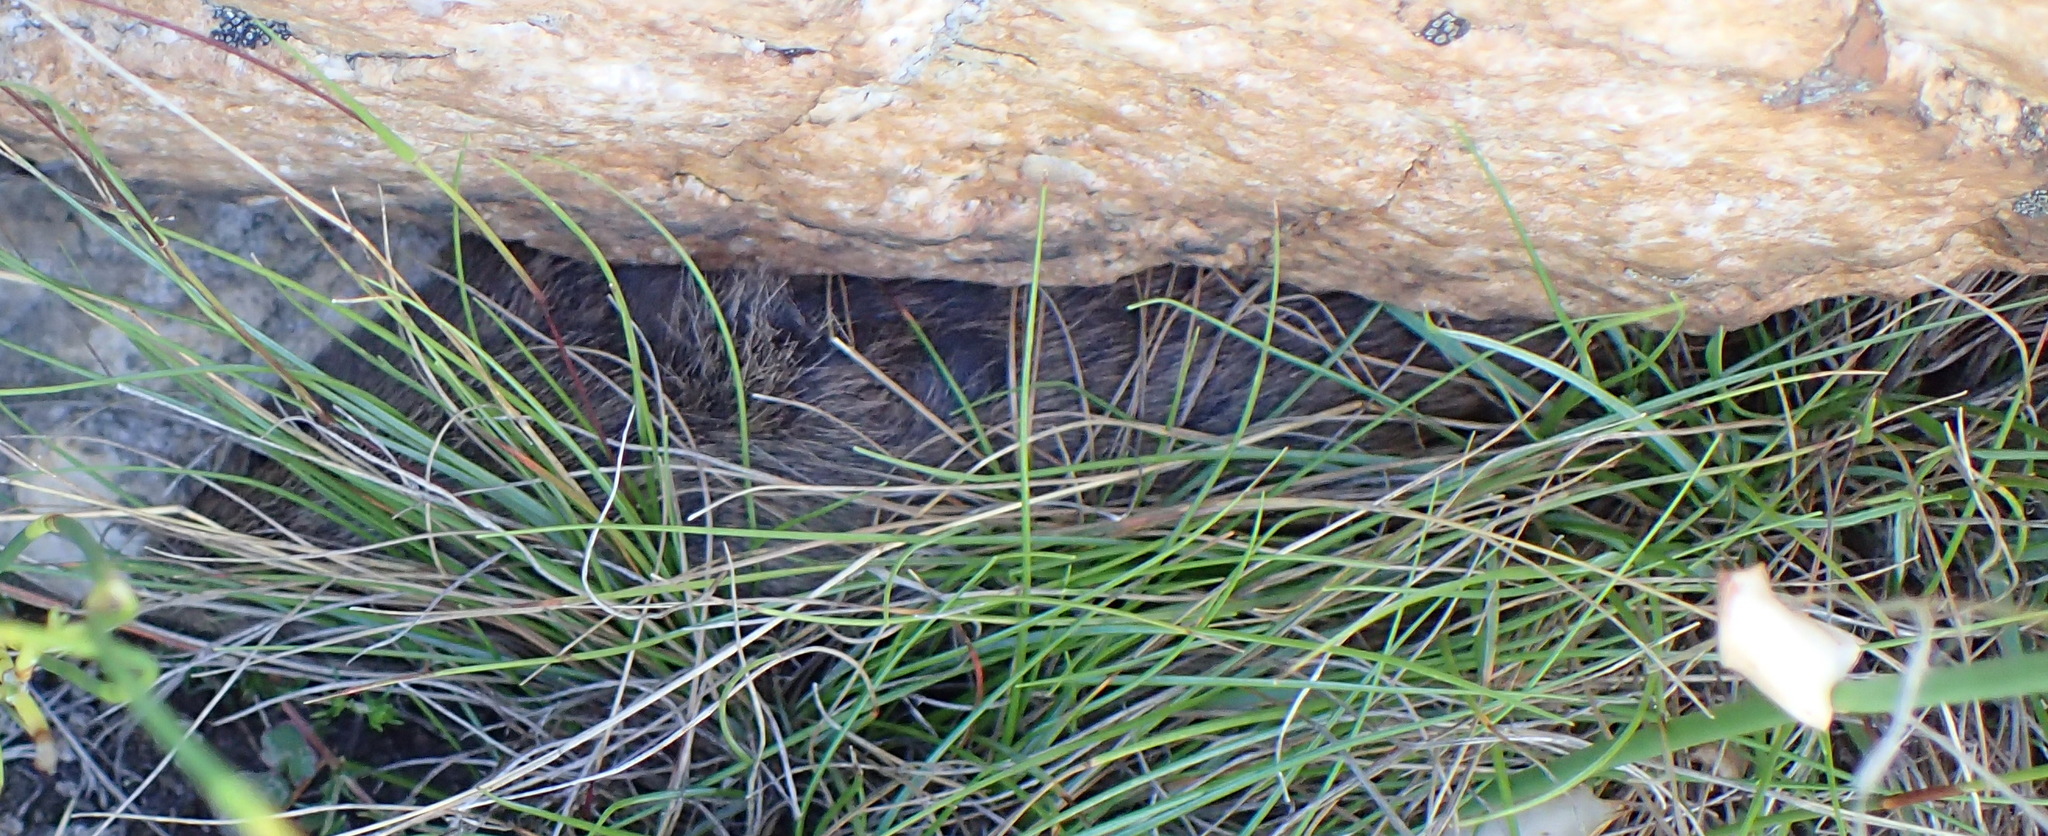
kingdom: Animalia
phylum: Chordata
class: Mammalia
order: Rodentia
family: Muridae
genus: Otomys
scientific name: Otomys irroratus
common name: Southern african vlei rat
